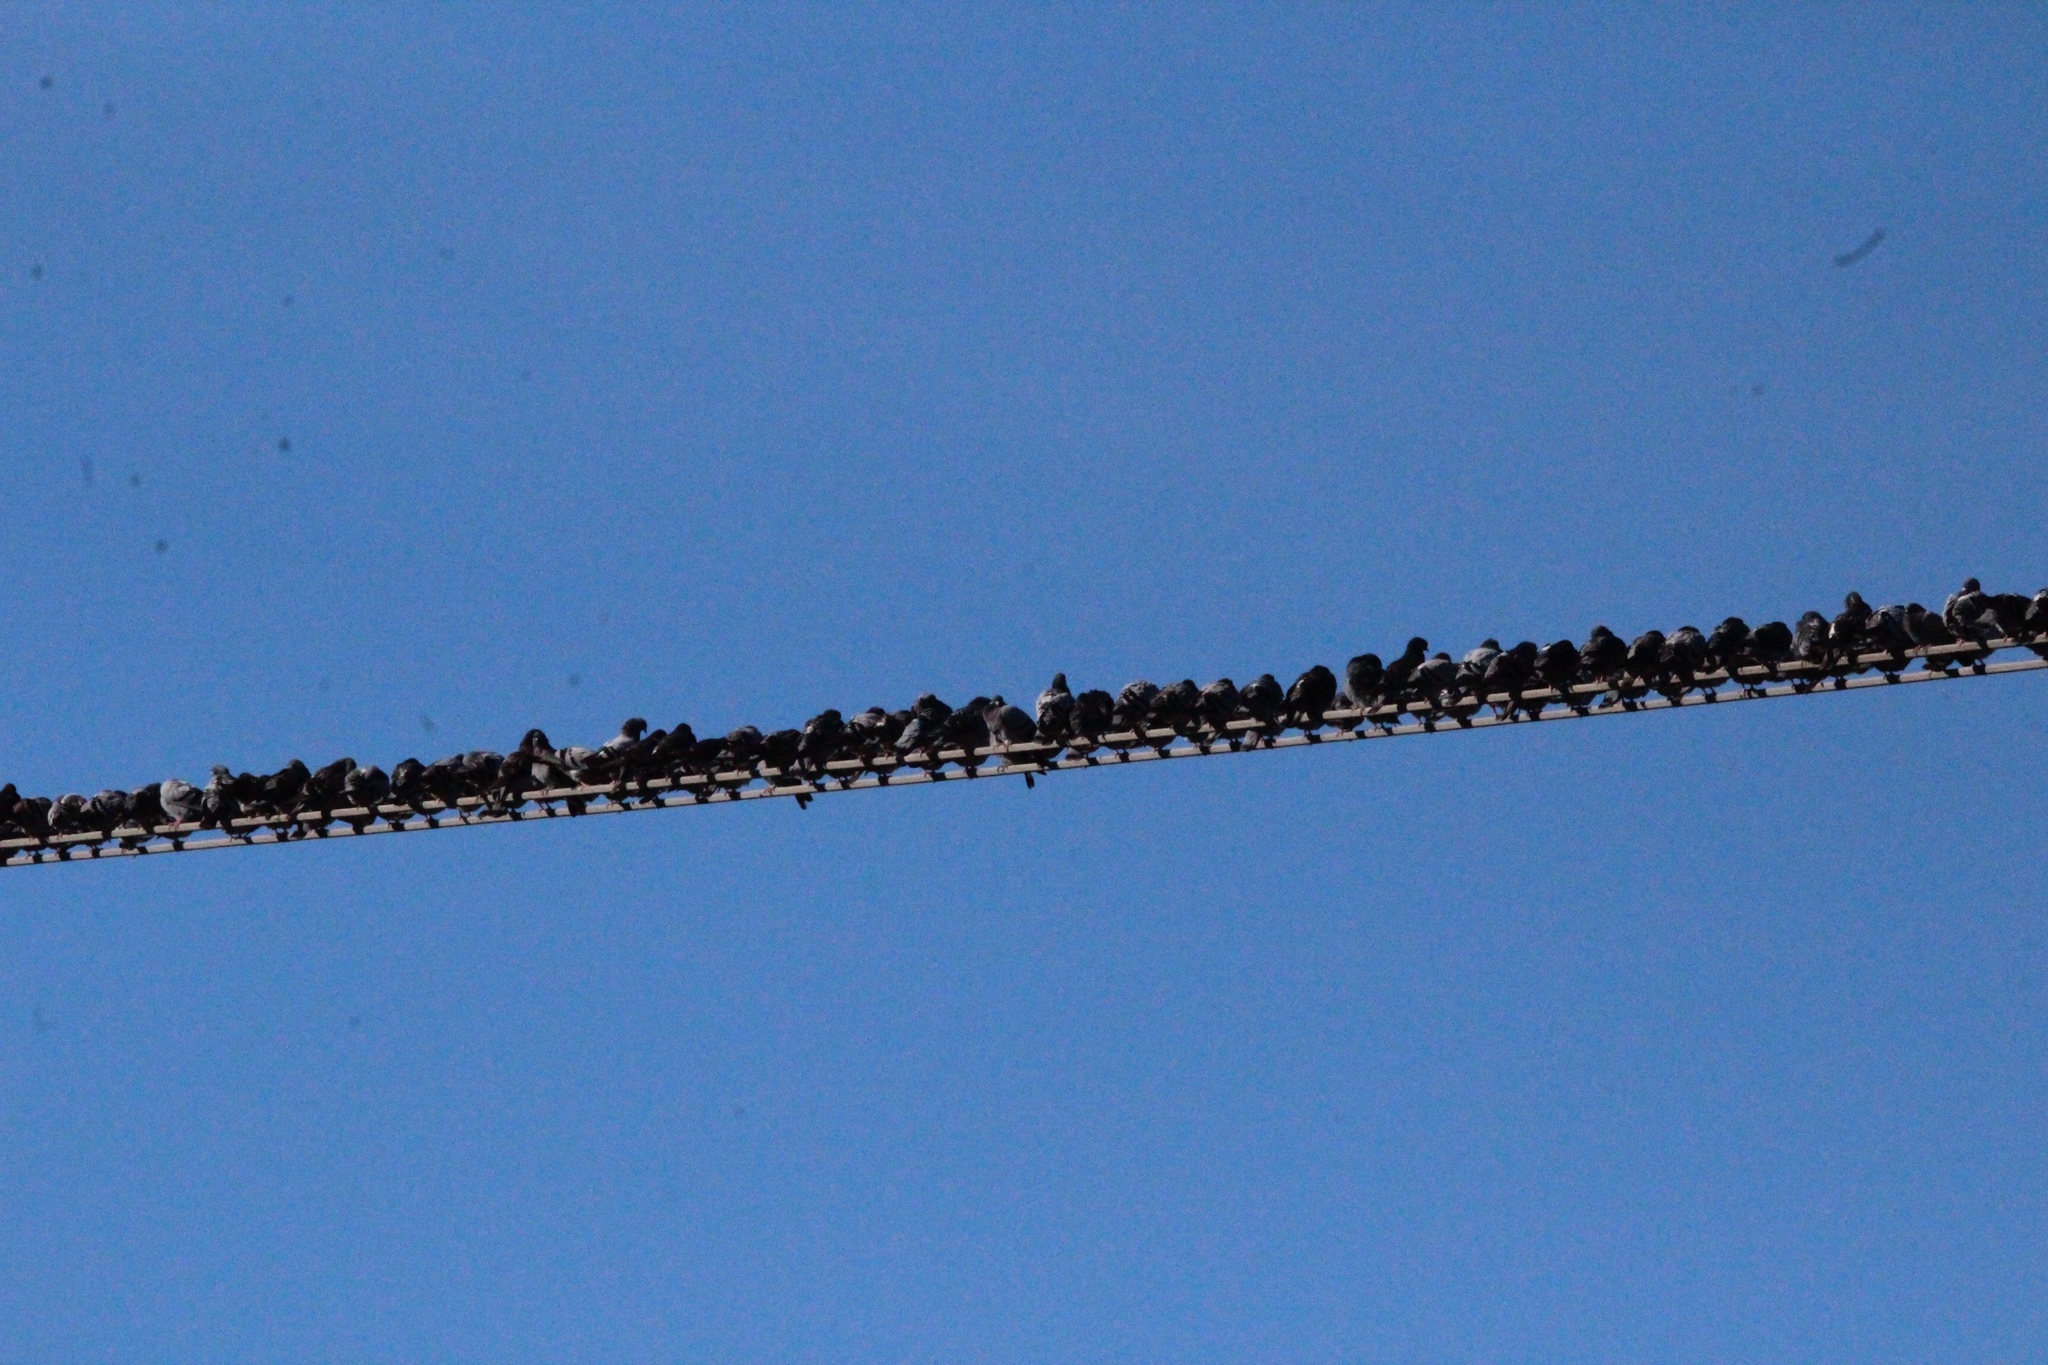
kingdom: Animalia
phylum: Chordata
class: Aves
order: Columbiformes
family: Columbidae
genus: Columba
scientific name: Columba livia
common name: Rock pigeon
